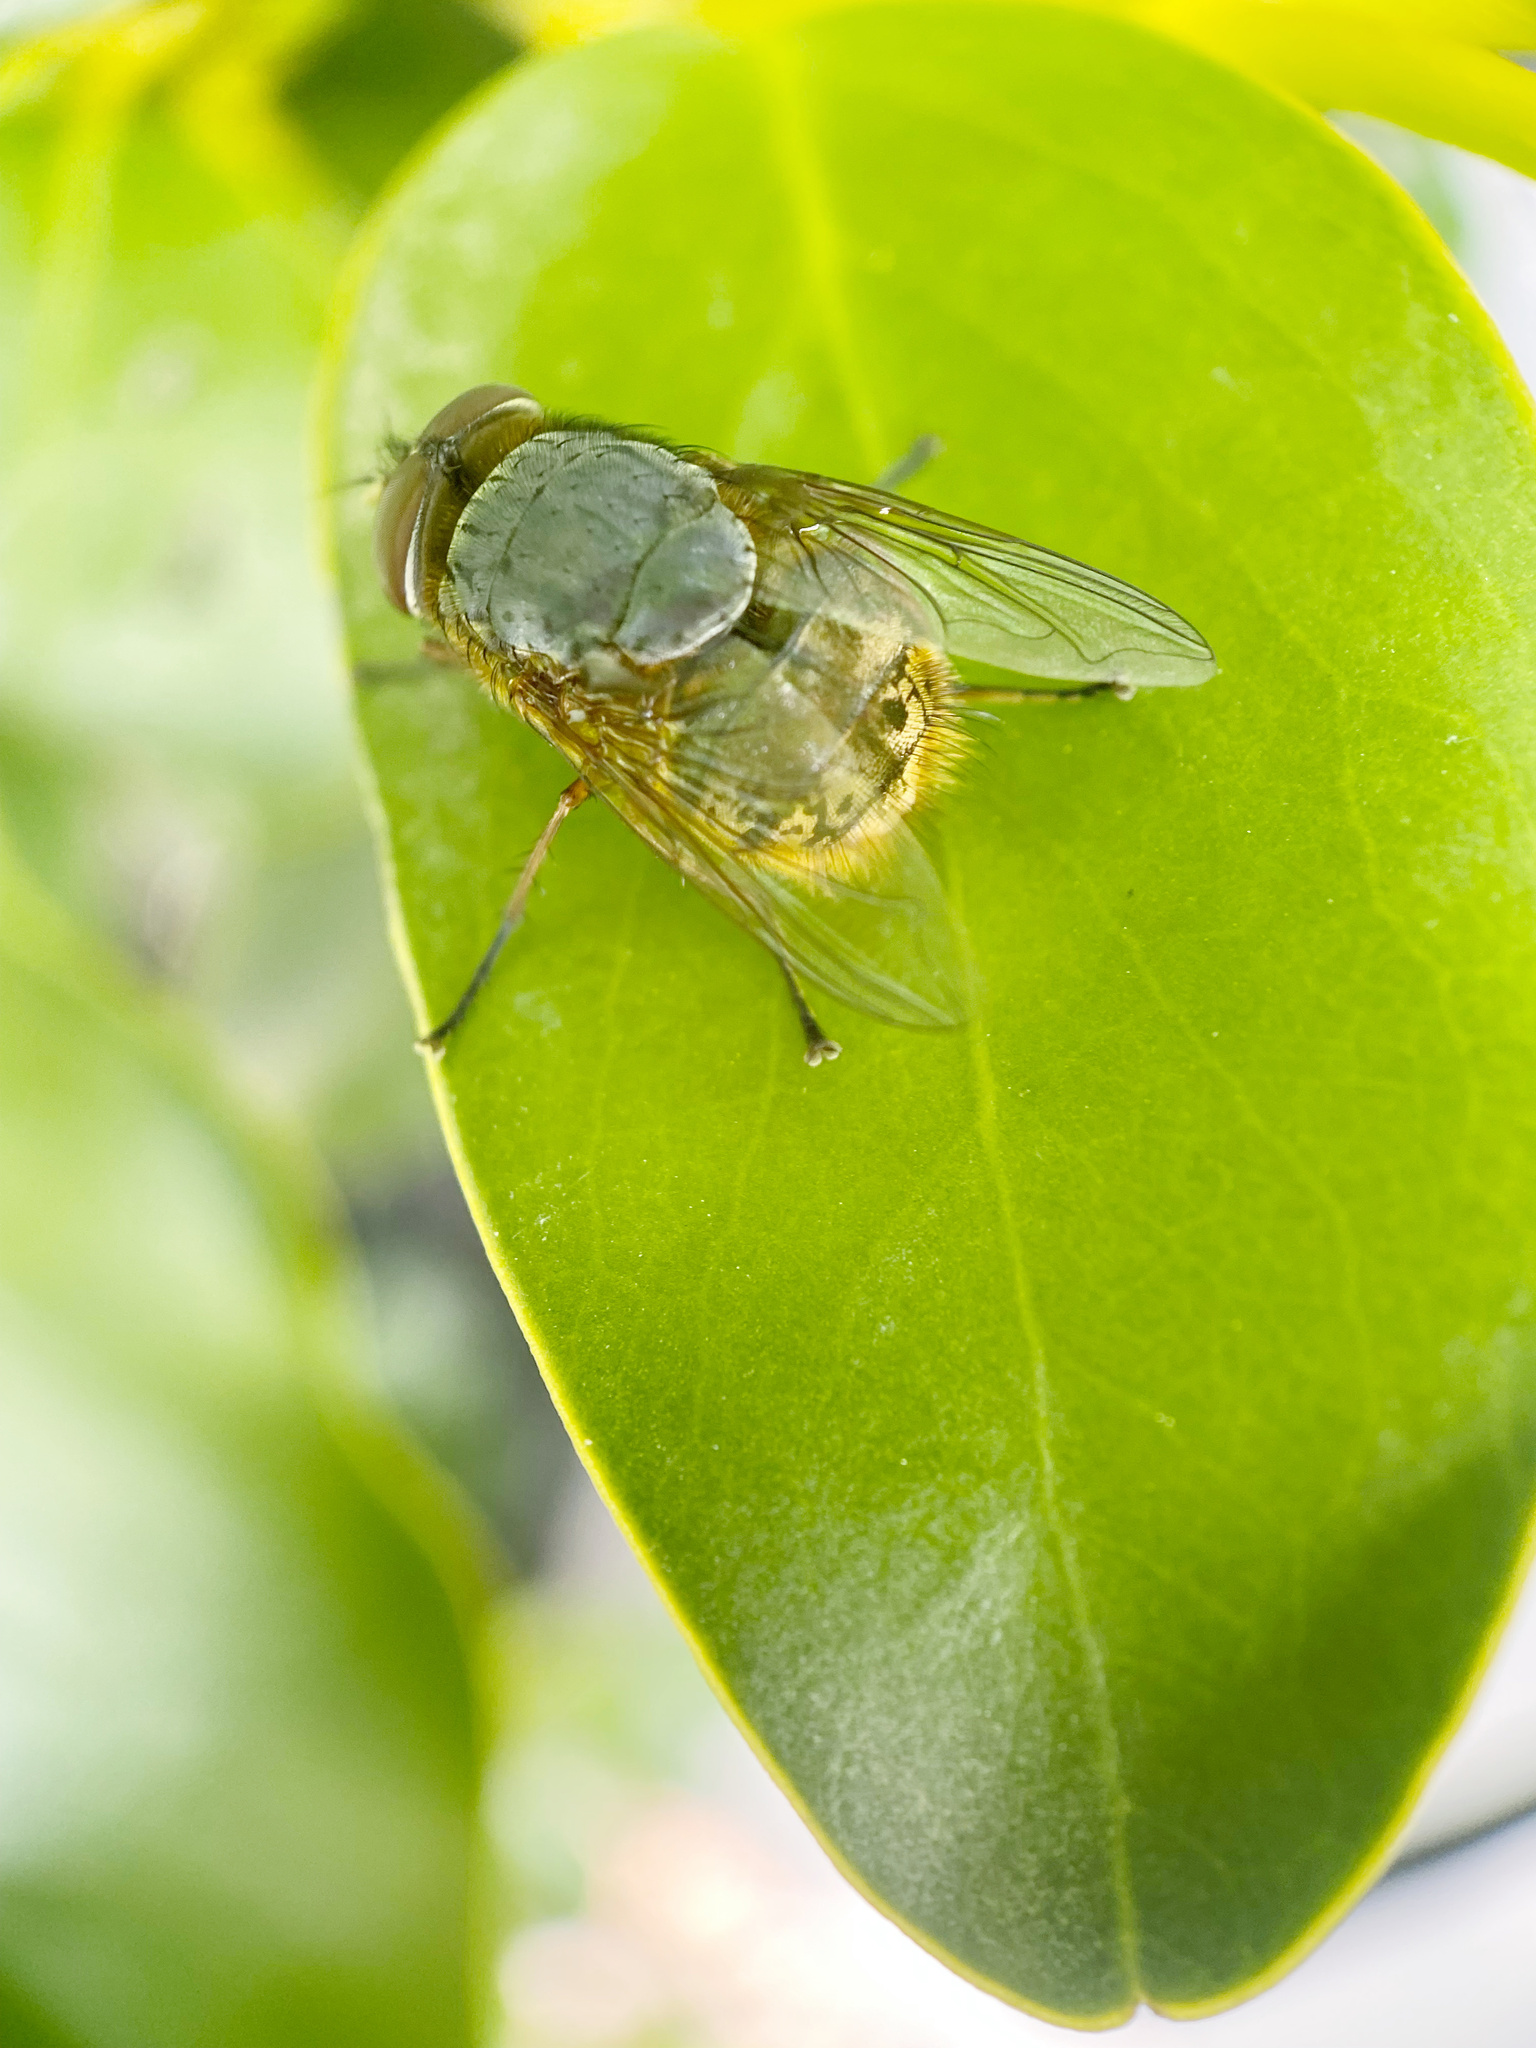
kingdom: Animalia
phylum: Arthropoda
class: Insecta
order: Diptera
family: Calliphoridae
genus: Calliphora
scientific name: Calliphora stygia
